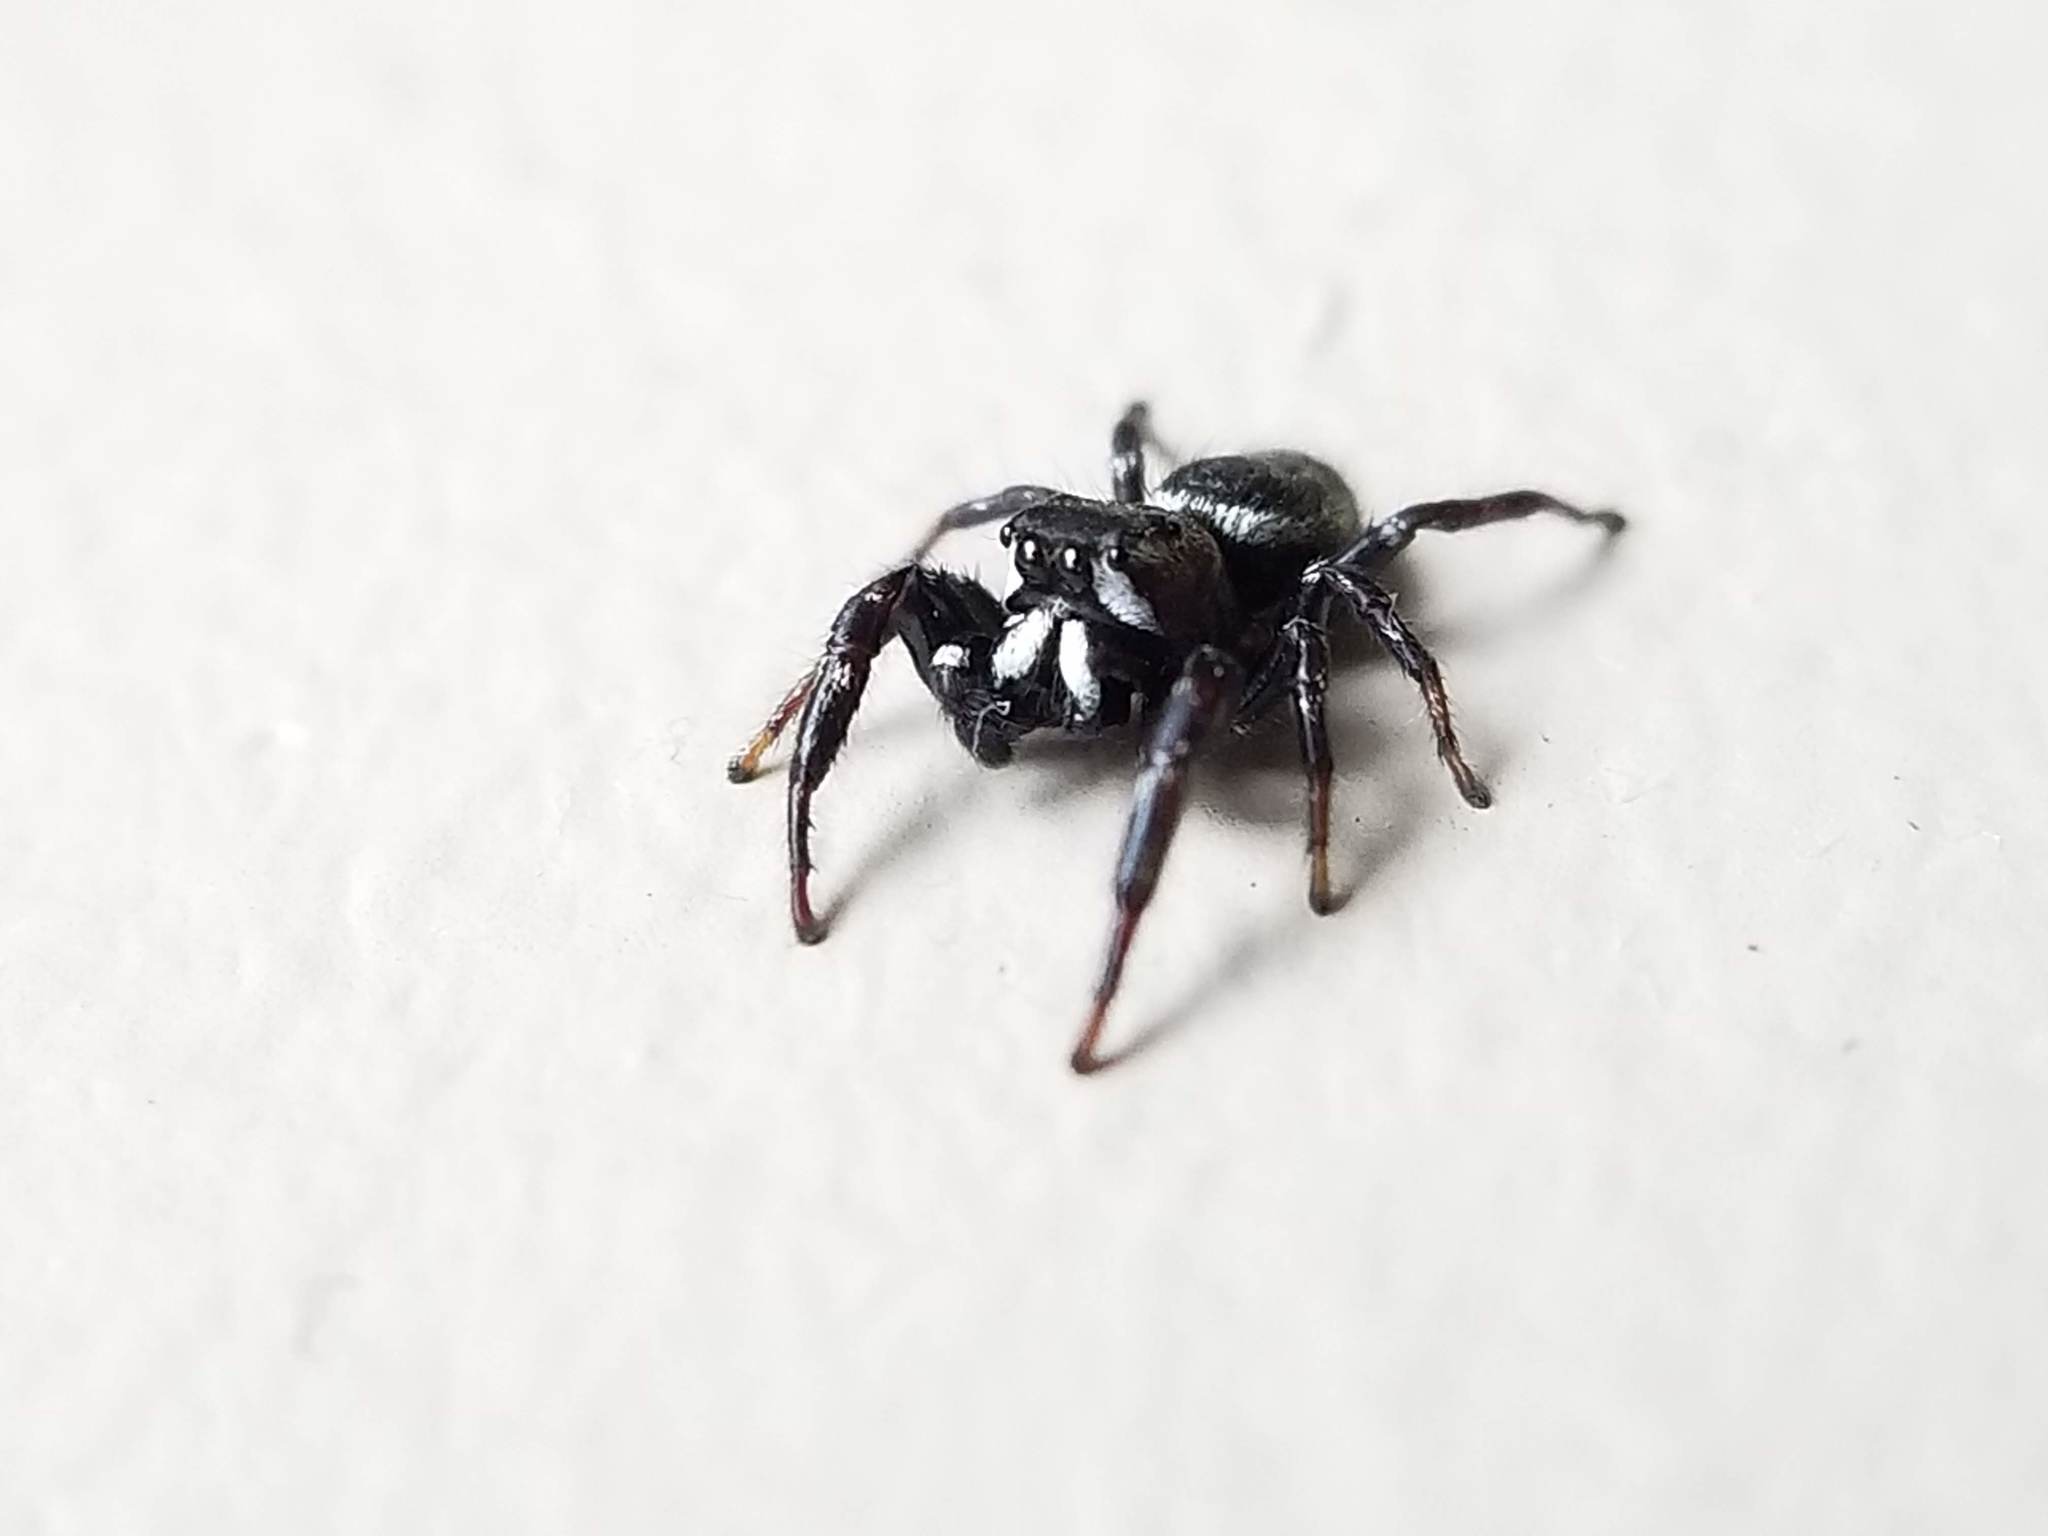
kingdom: Animalia
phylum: Arthropoda
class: Arachnida
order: Araneae
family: Salticidae
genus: Metaphidippus
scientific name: Metaphidippus manni
